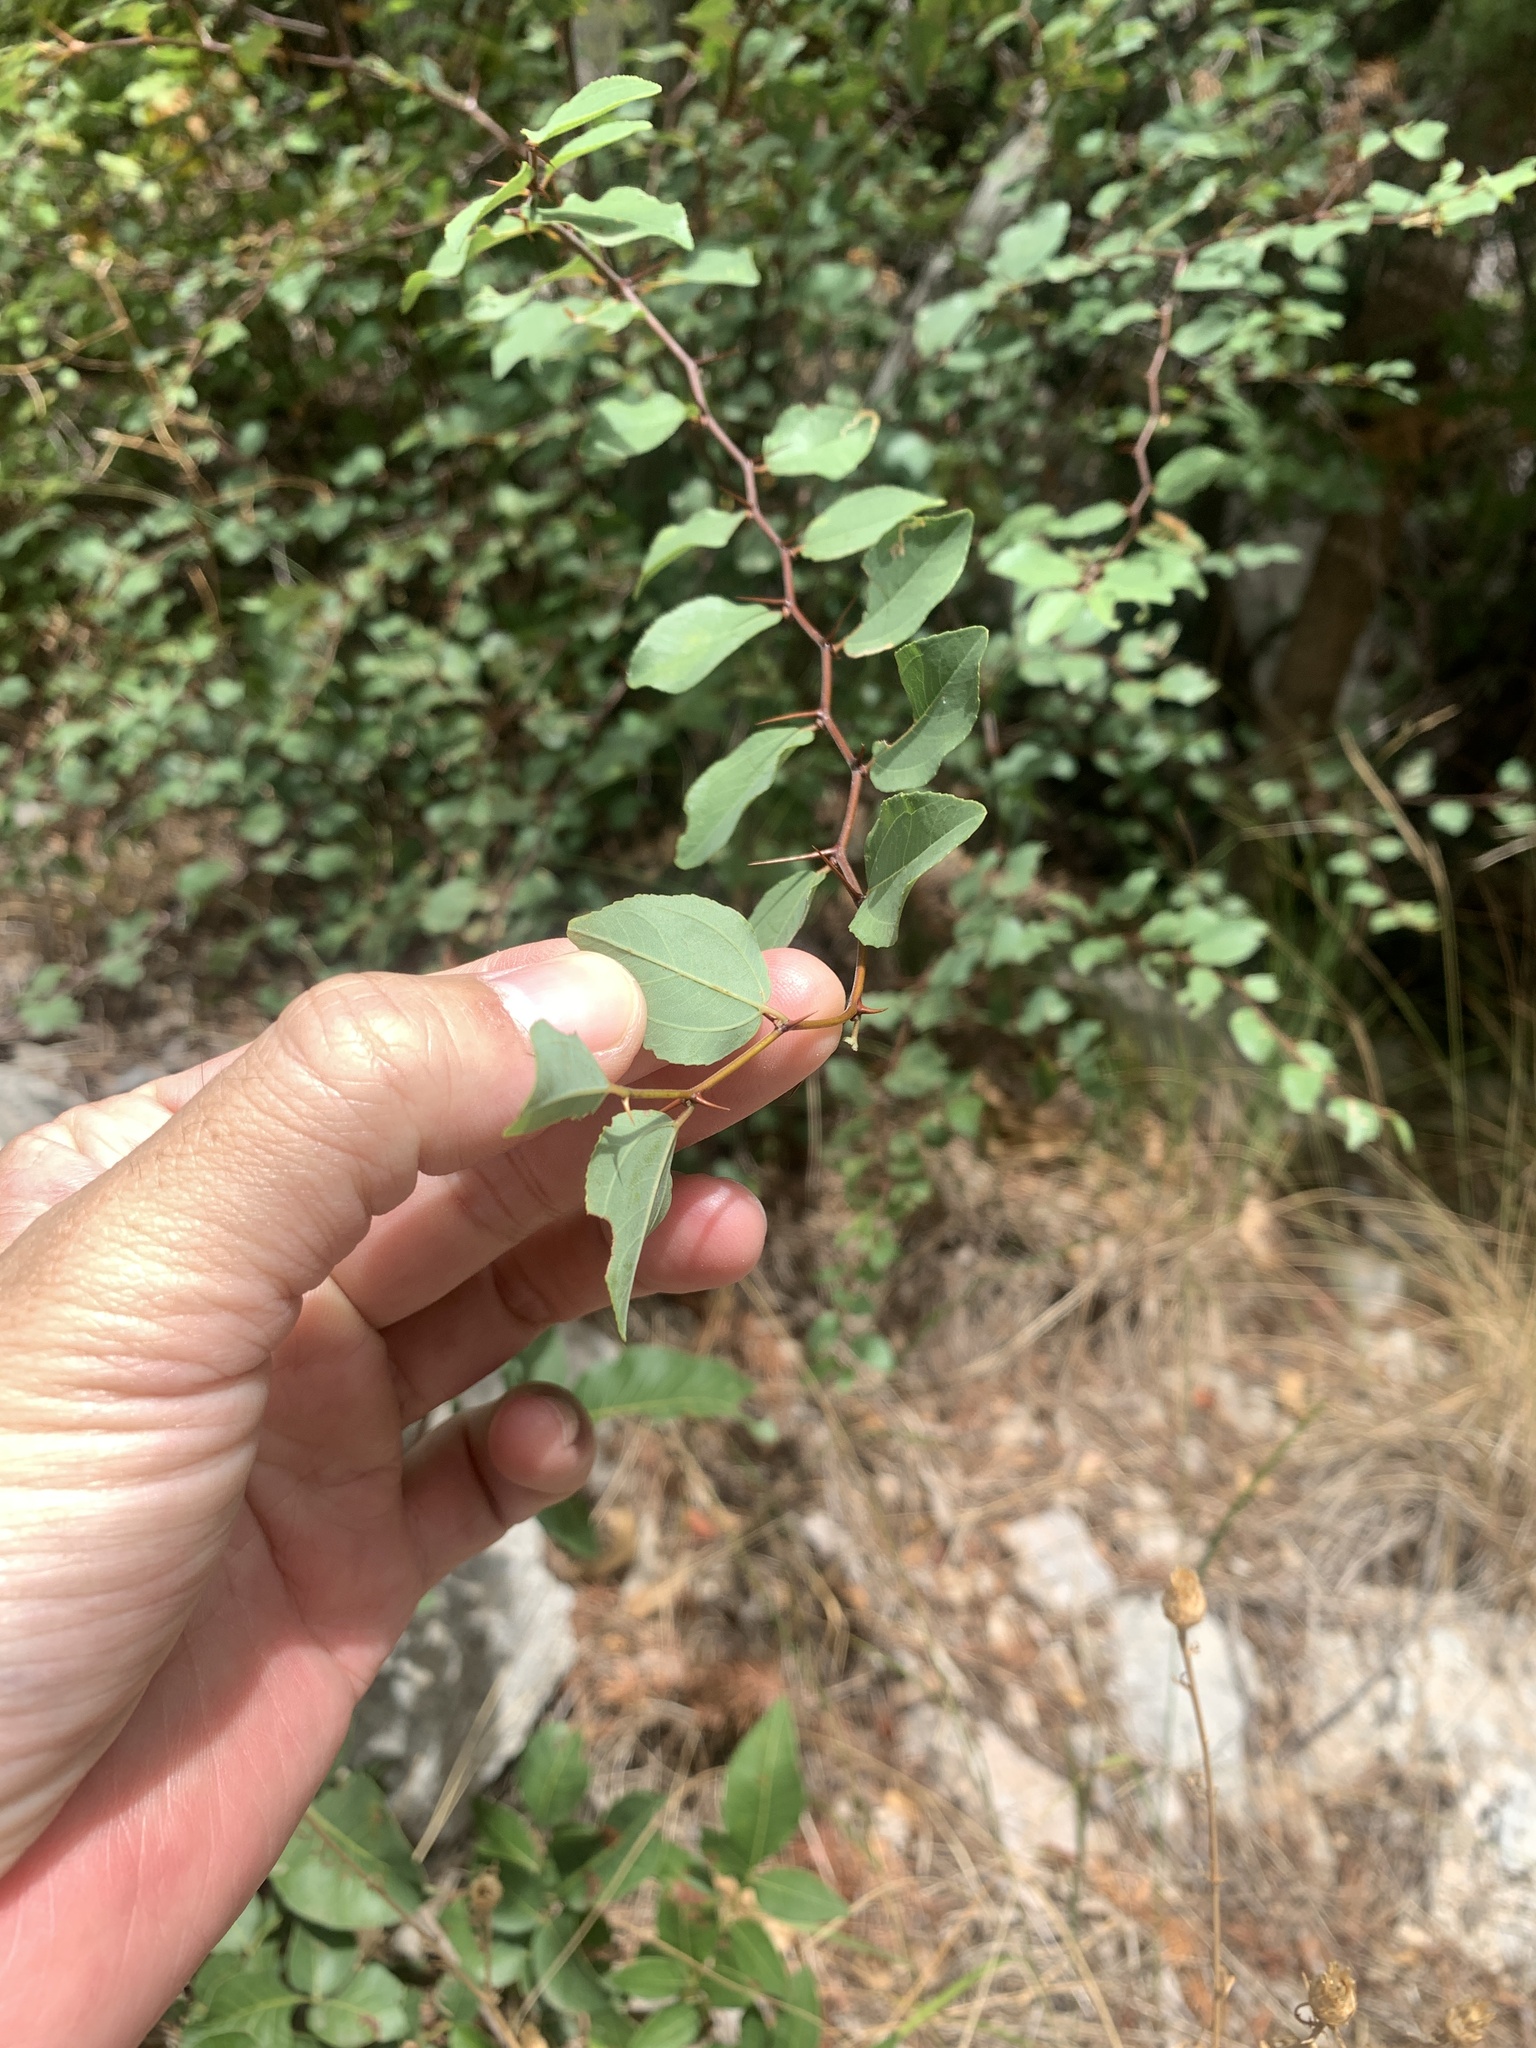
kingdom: Plantae
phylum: Tracheophyta
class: Magnoliopsida
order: Rosales
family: Rhamnaceae
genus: Paliurus
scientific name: Paliurus spina-christi
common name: Jeruselem thorn
